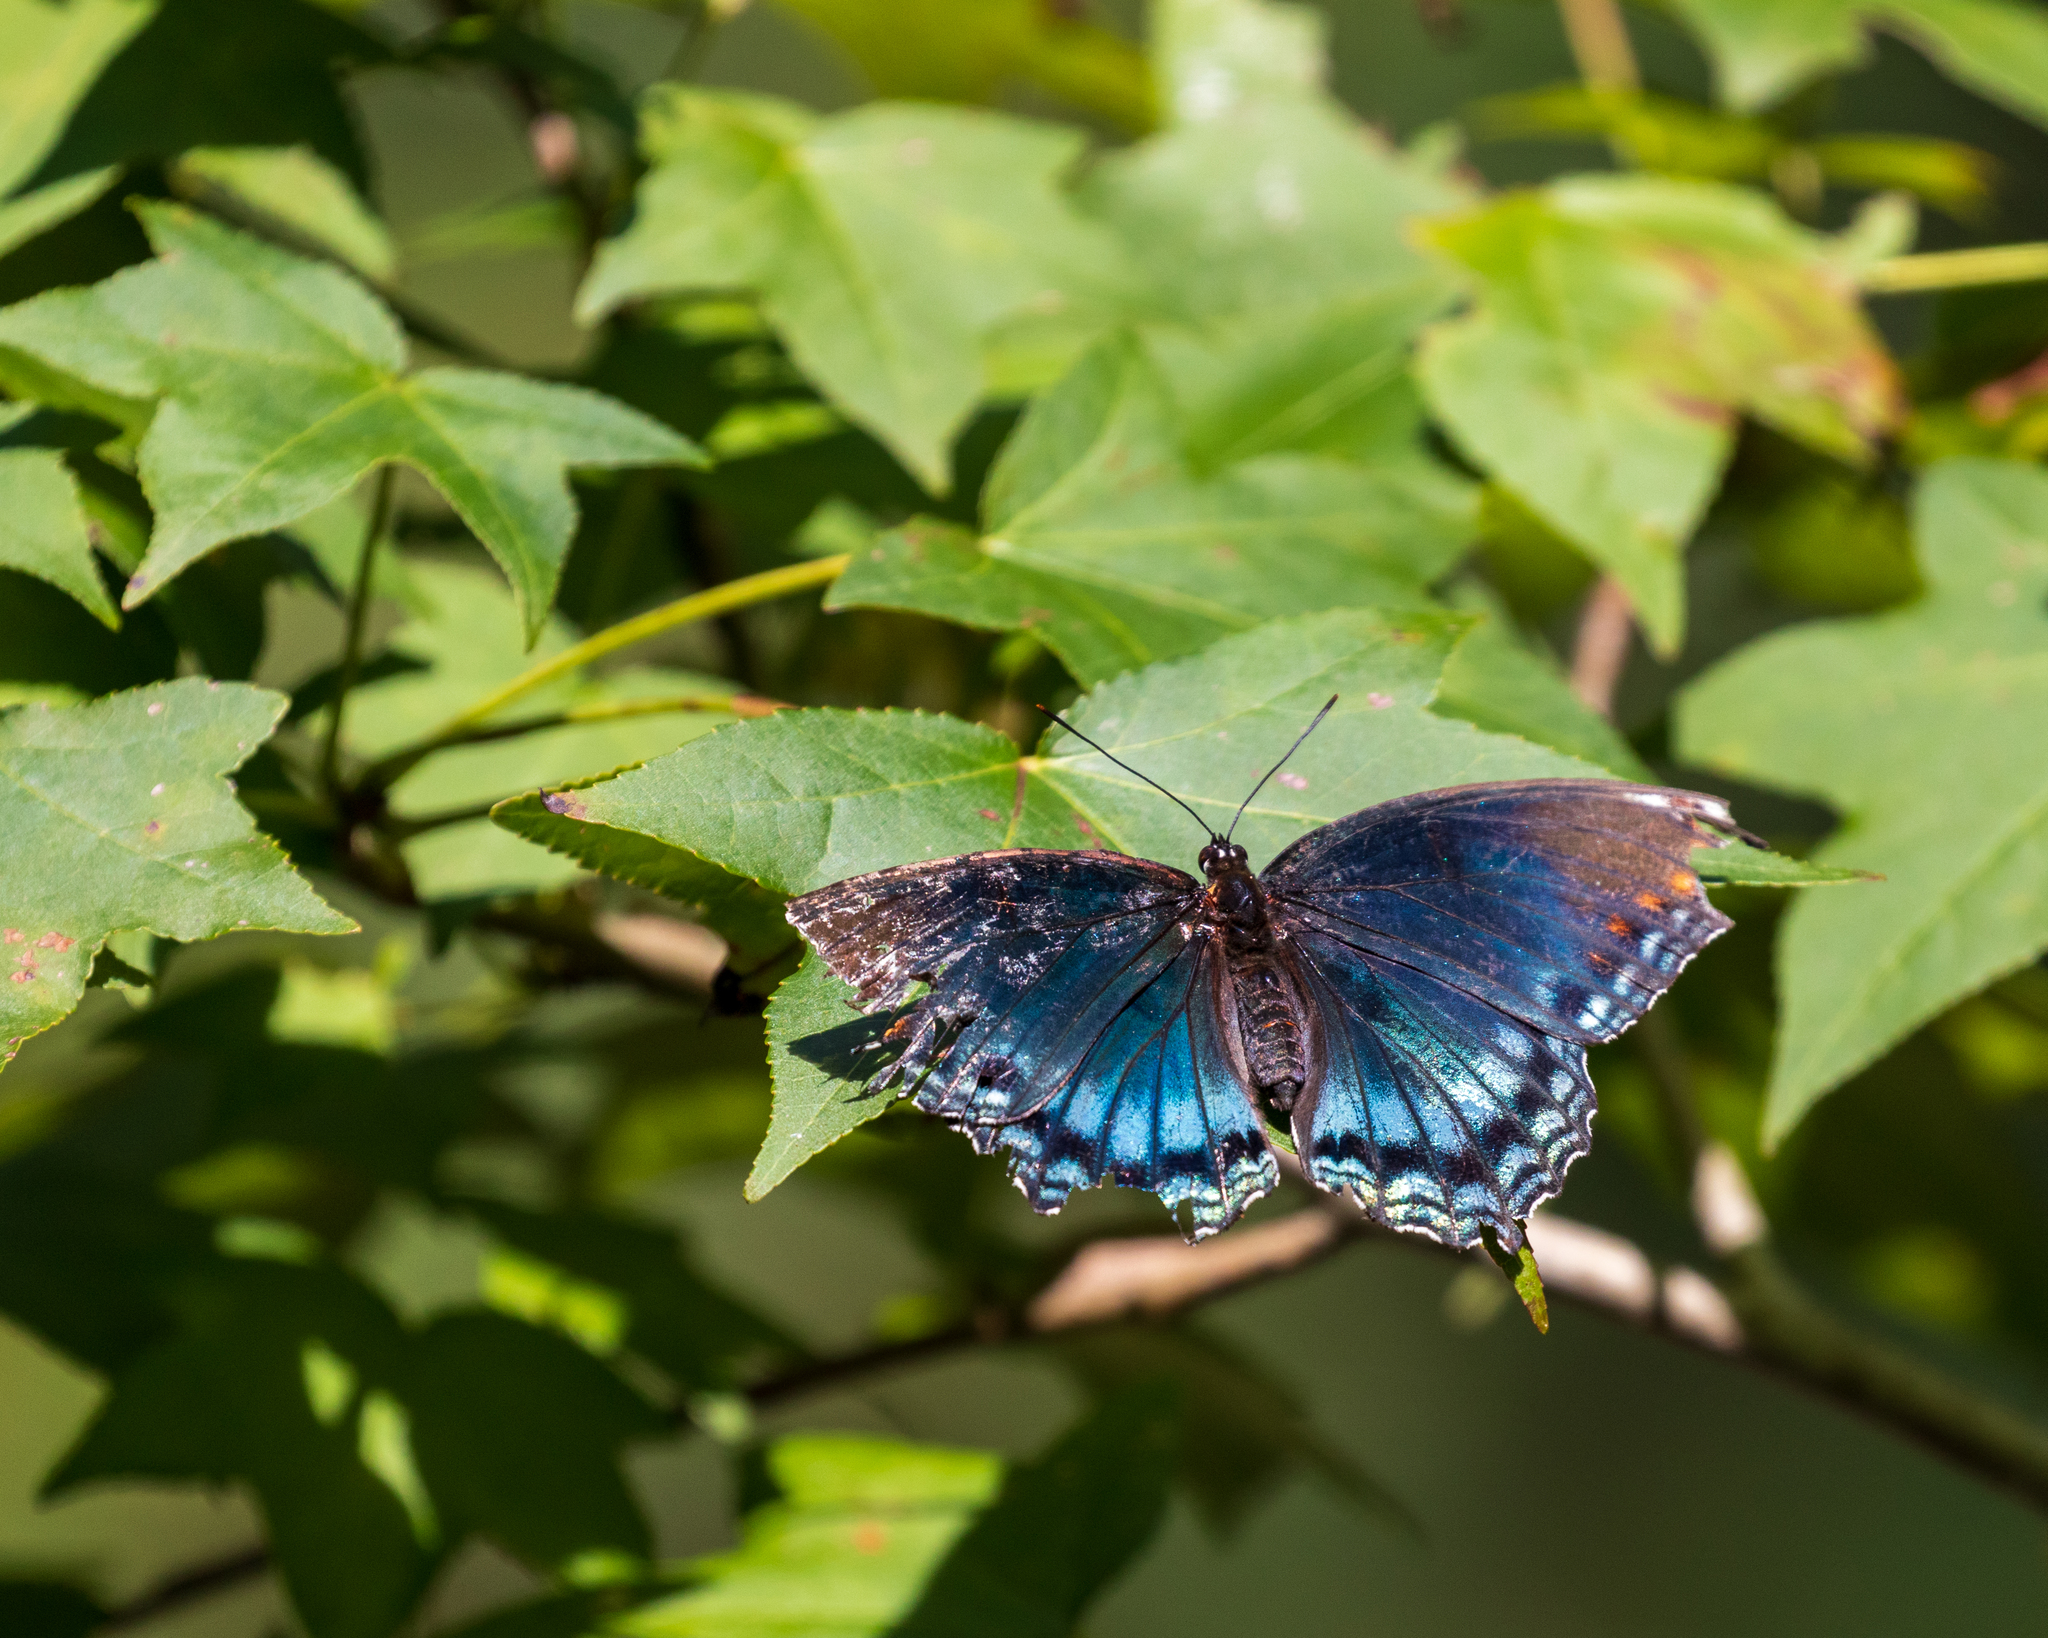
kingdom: Animalia
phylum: Arthropoda
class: Insecta
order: Lepidoptera
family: Nymphalidae
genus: Limenitis
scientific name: Limenitis astyanax
